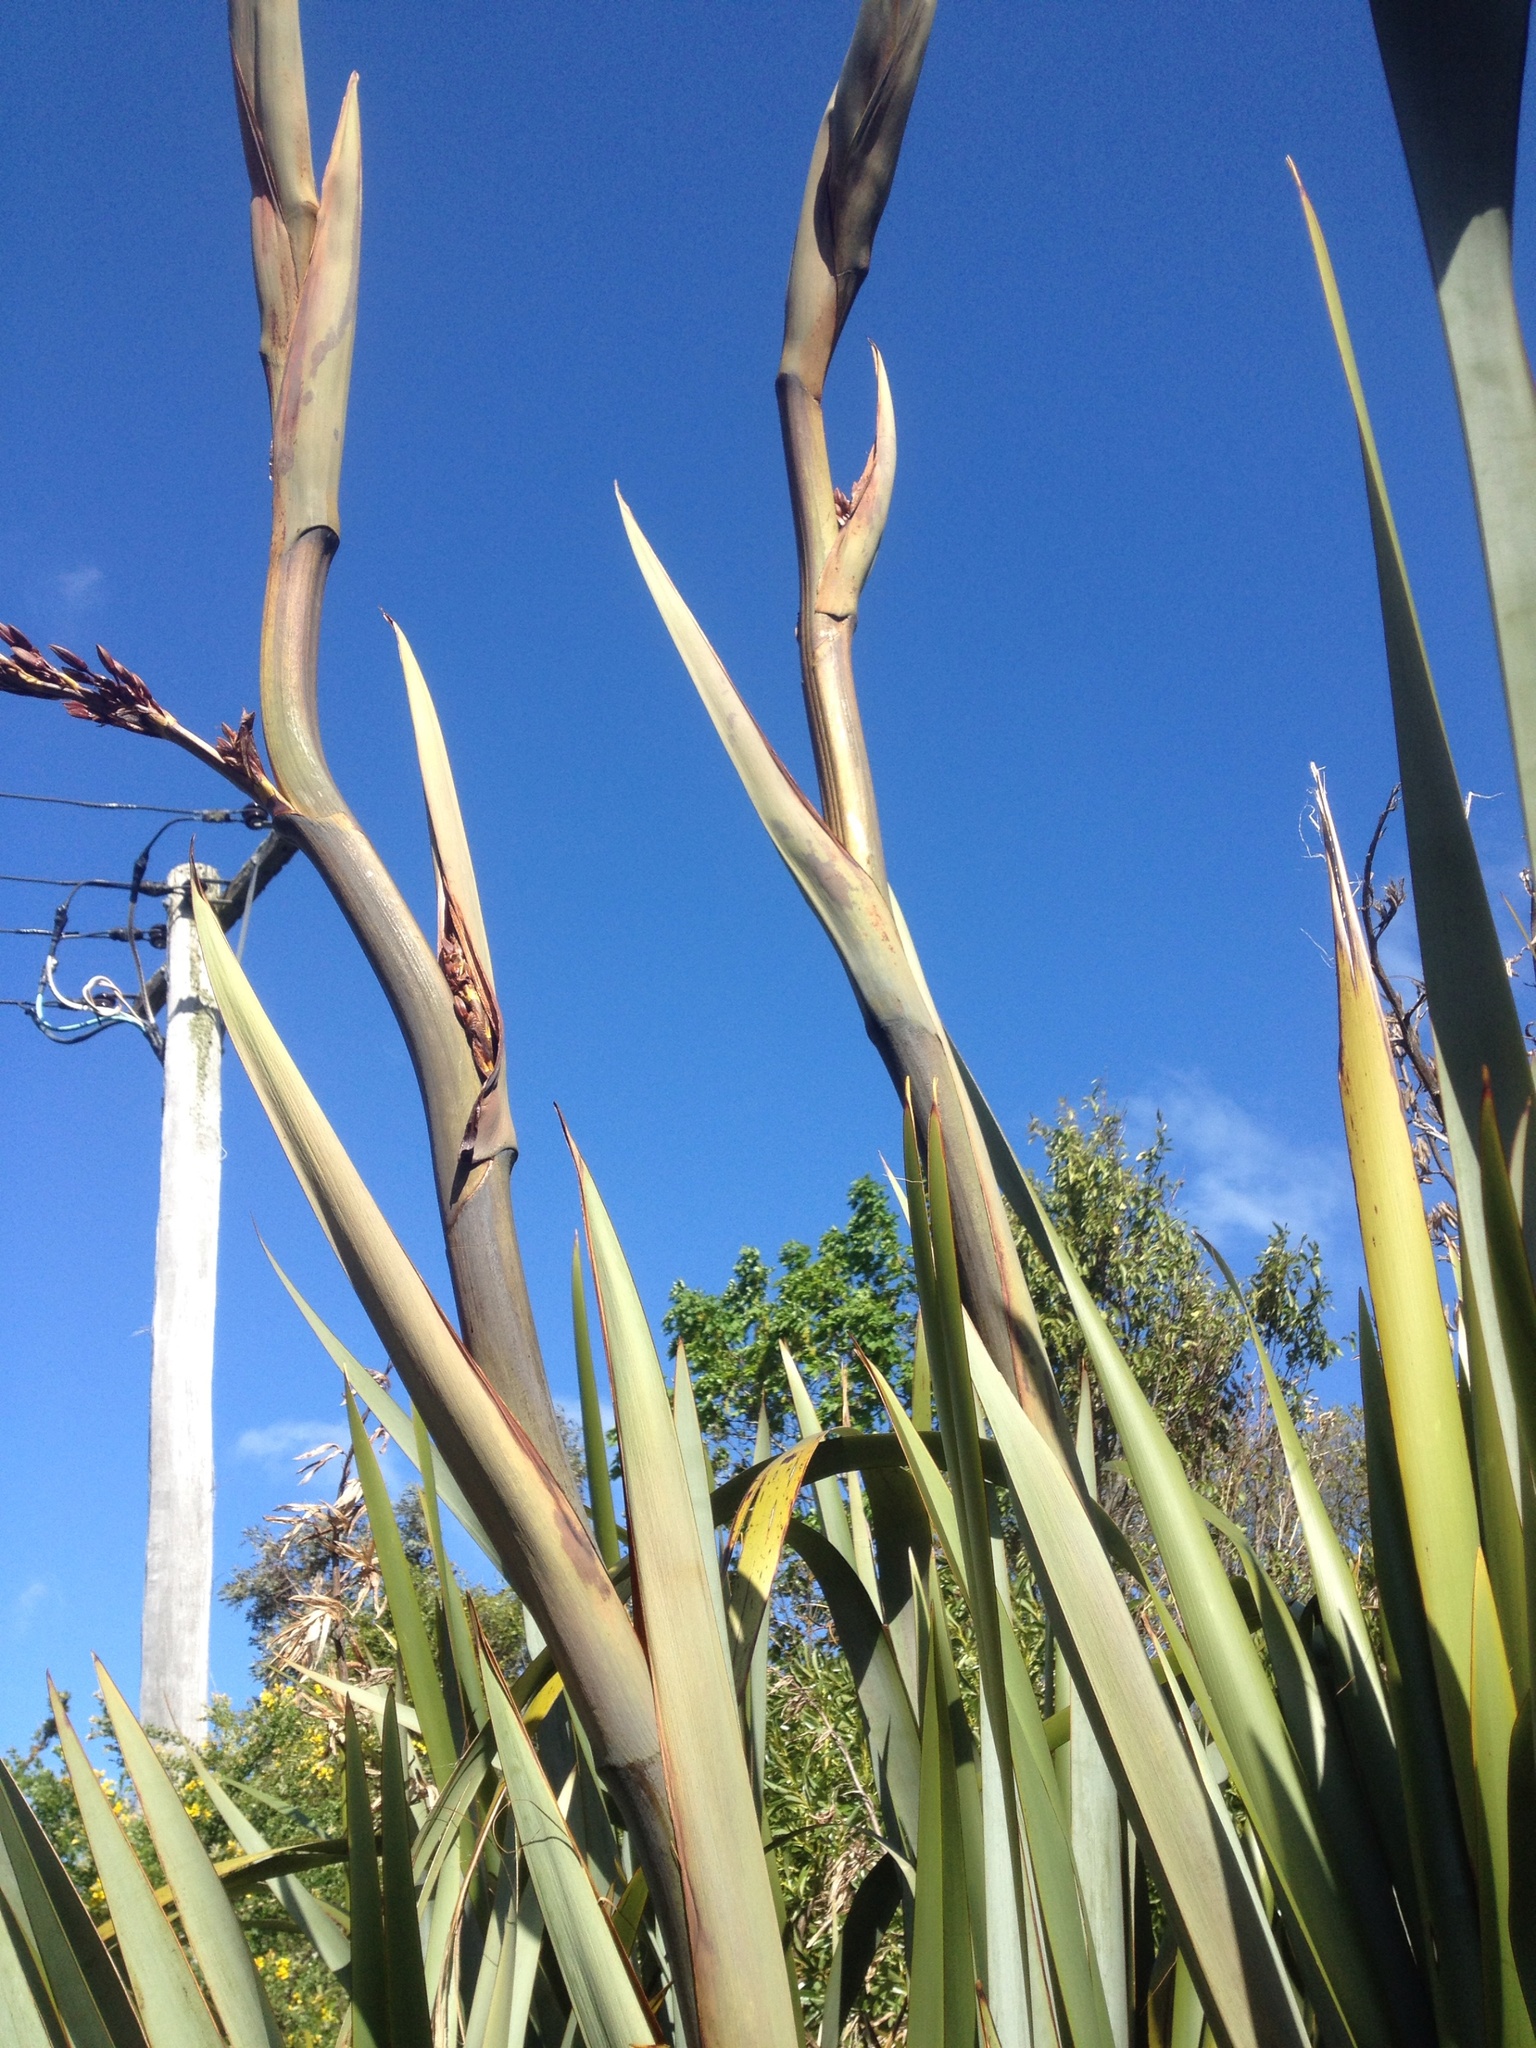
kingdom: Plantae
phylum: Tracheophyta
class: Liliopsida
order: Asparagales
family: Asphodelaceae
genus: Phormium
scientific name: Phormium tenax
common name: New zealand flax
